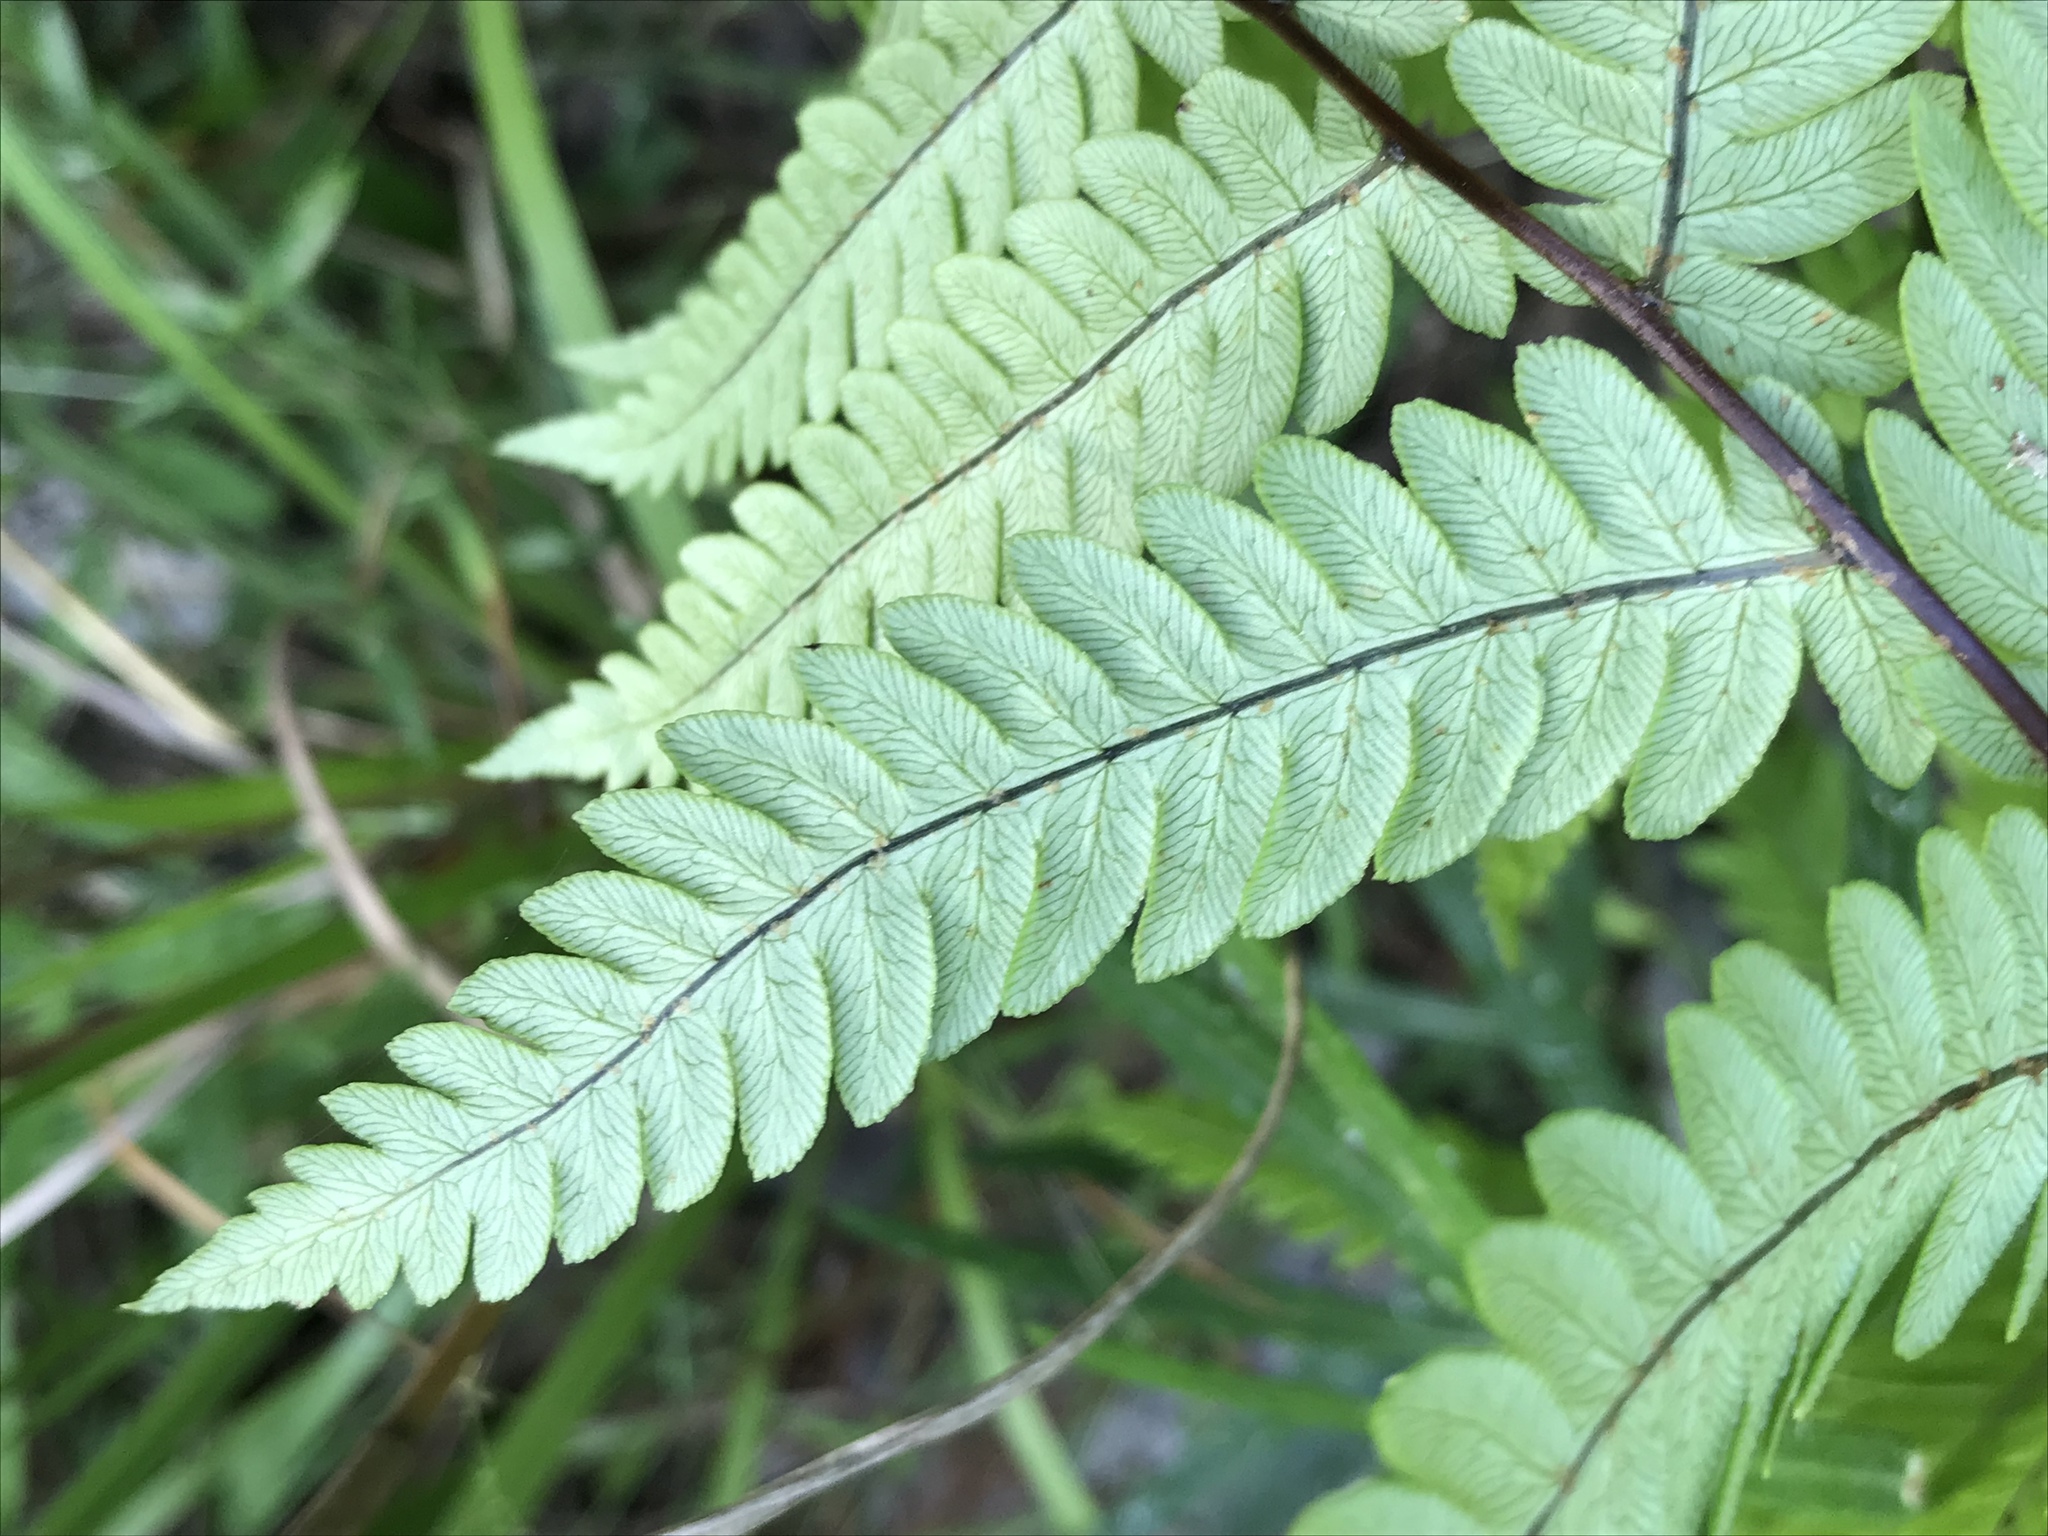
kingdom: Plantae
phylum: Tracheophyta
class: Polypodiopsida
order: Polypodiales
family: Blechnaceae
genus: Anchistea
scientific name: Anchistea virginica
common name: Virginia chain fern
